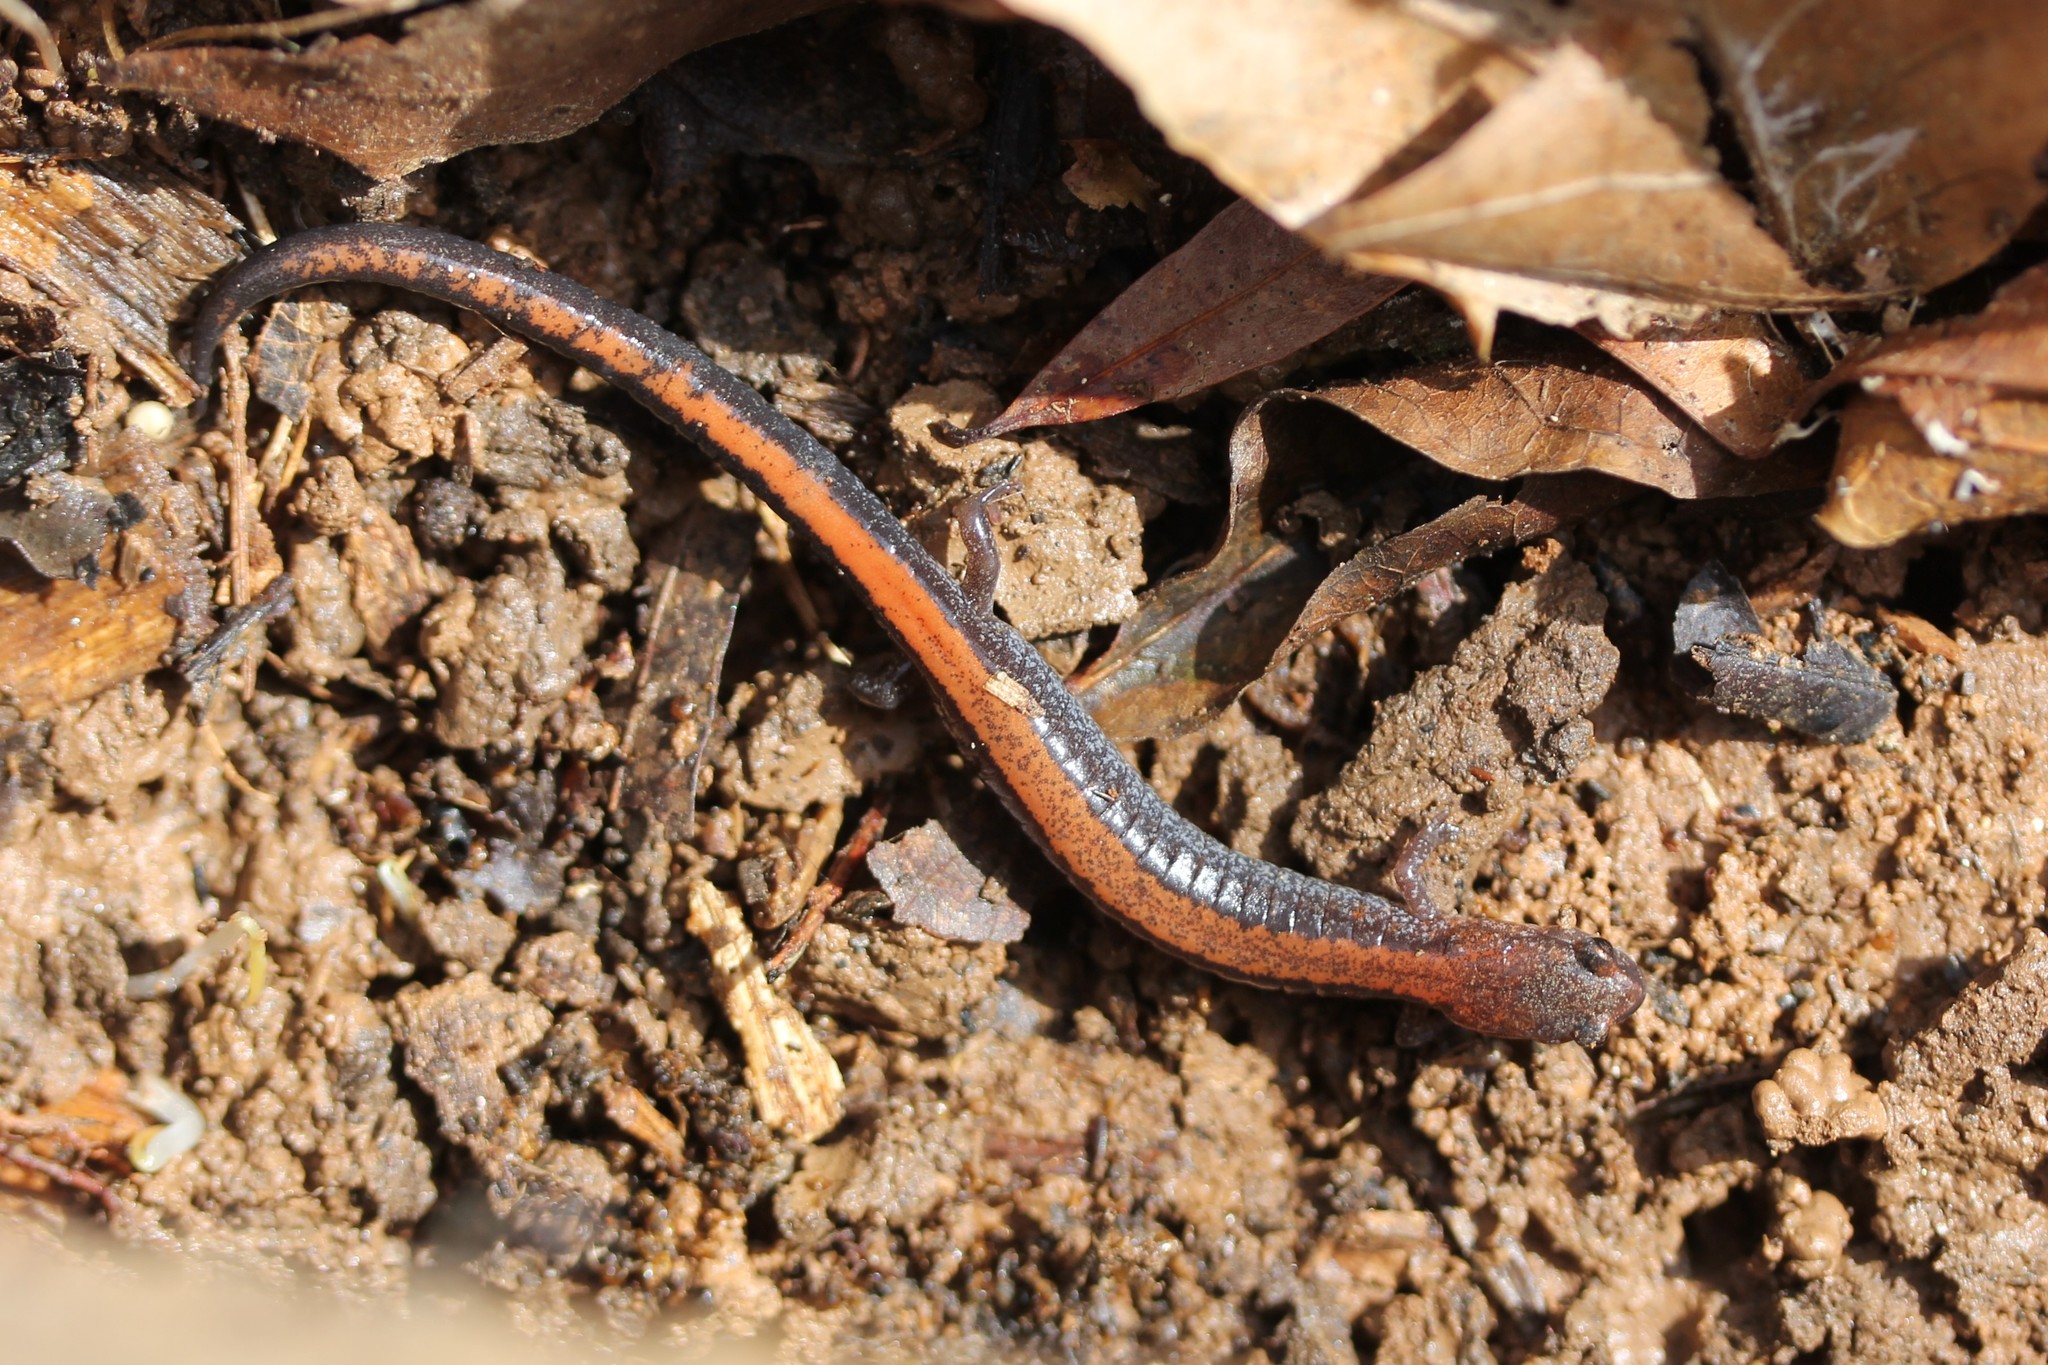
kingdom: Animalia
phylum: Chordata
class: Amphibia
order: Caudata
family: Plethodontidae
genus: Plethodon
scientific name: Plethodon cinereus
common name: Redback salamander
